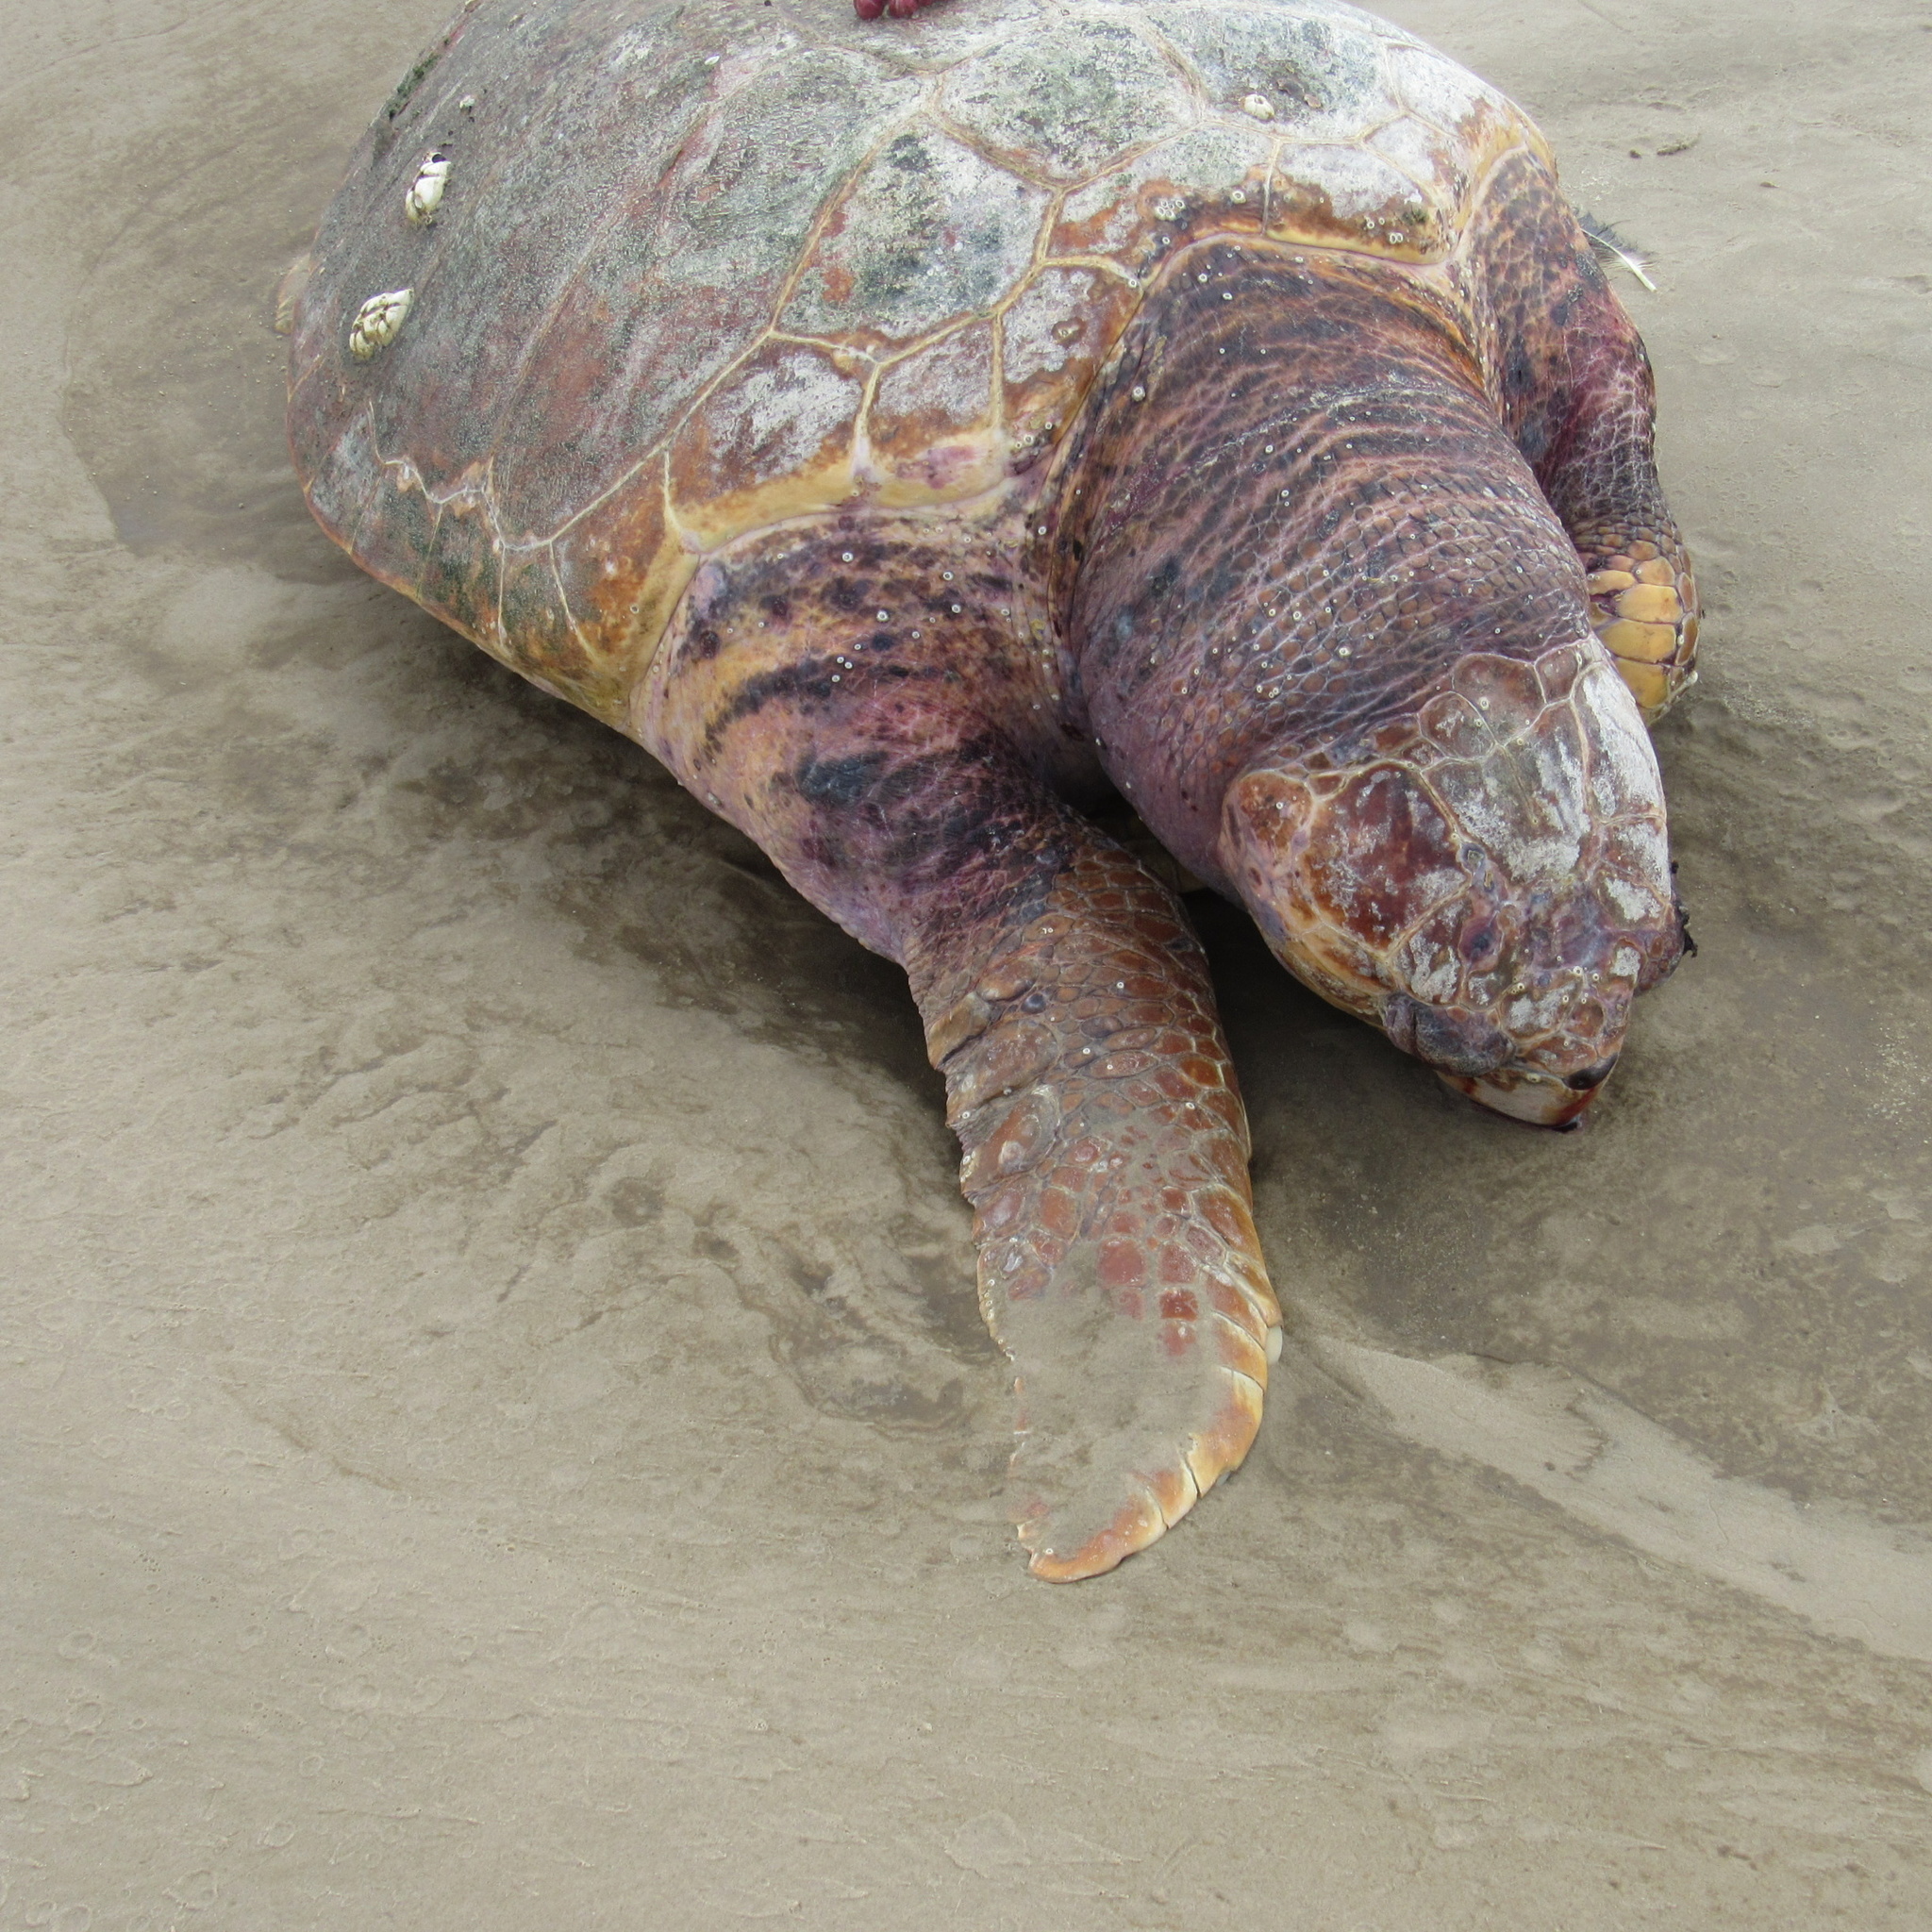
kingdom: Animalia
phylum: Chordata
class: Testudines
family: Cheloniidae
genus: Caretta
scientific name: Caretta caretta
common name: Loggerhead sea turtle
